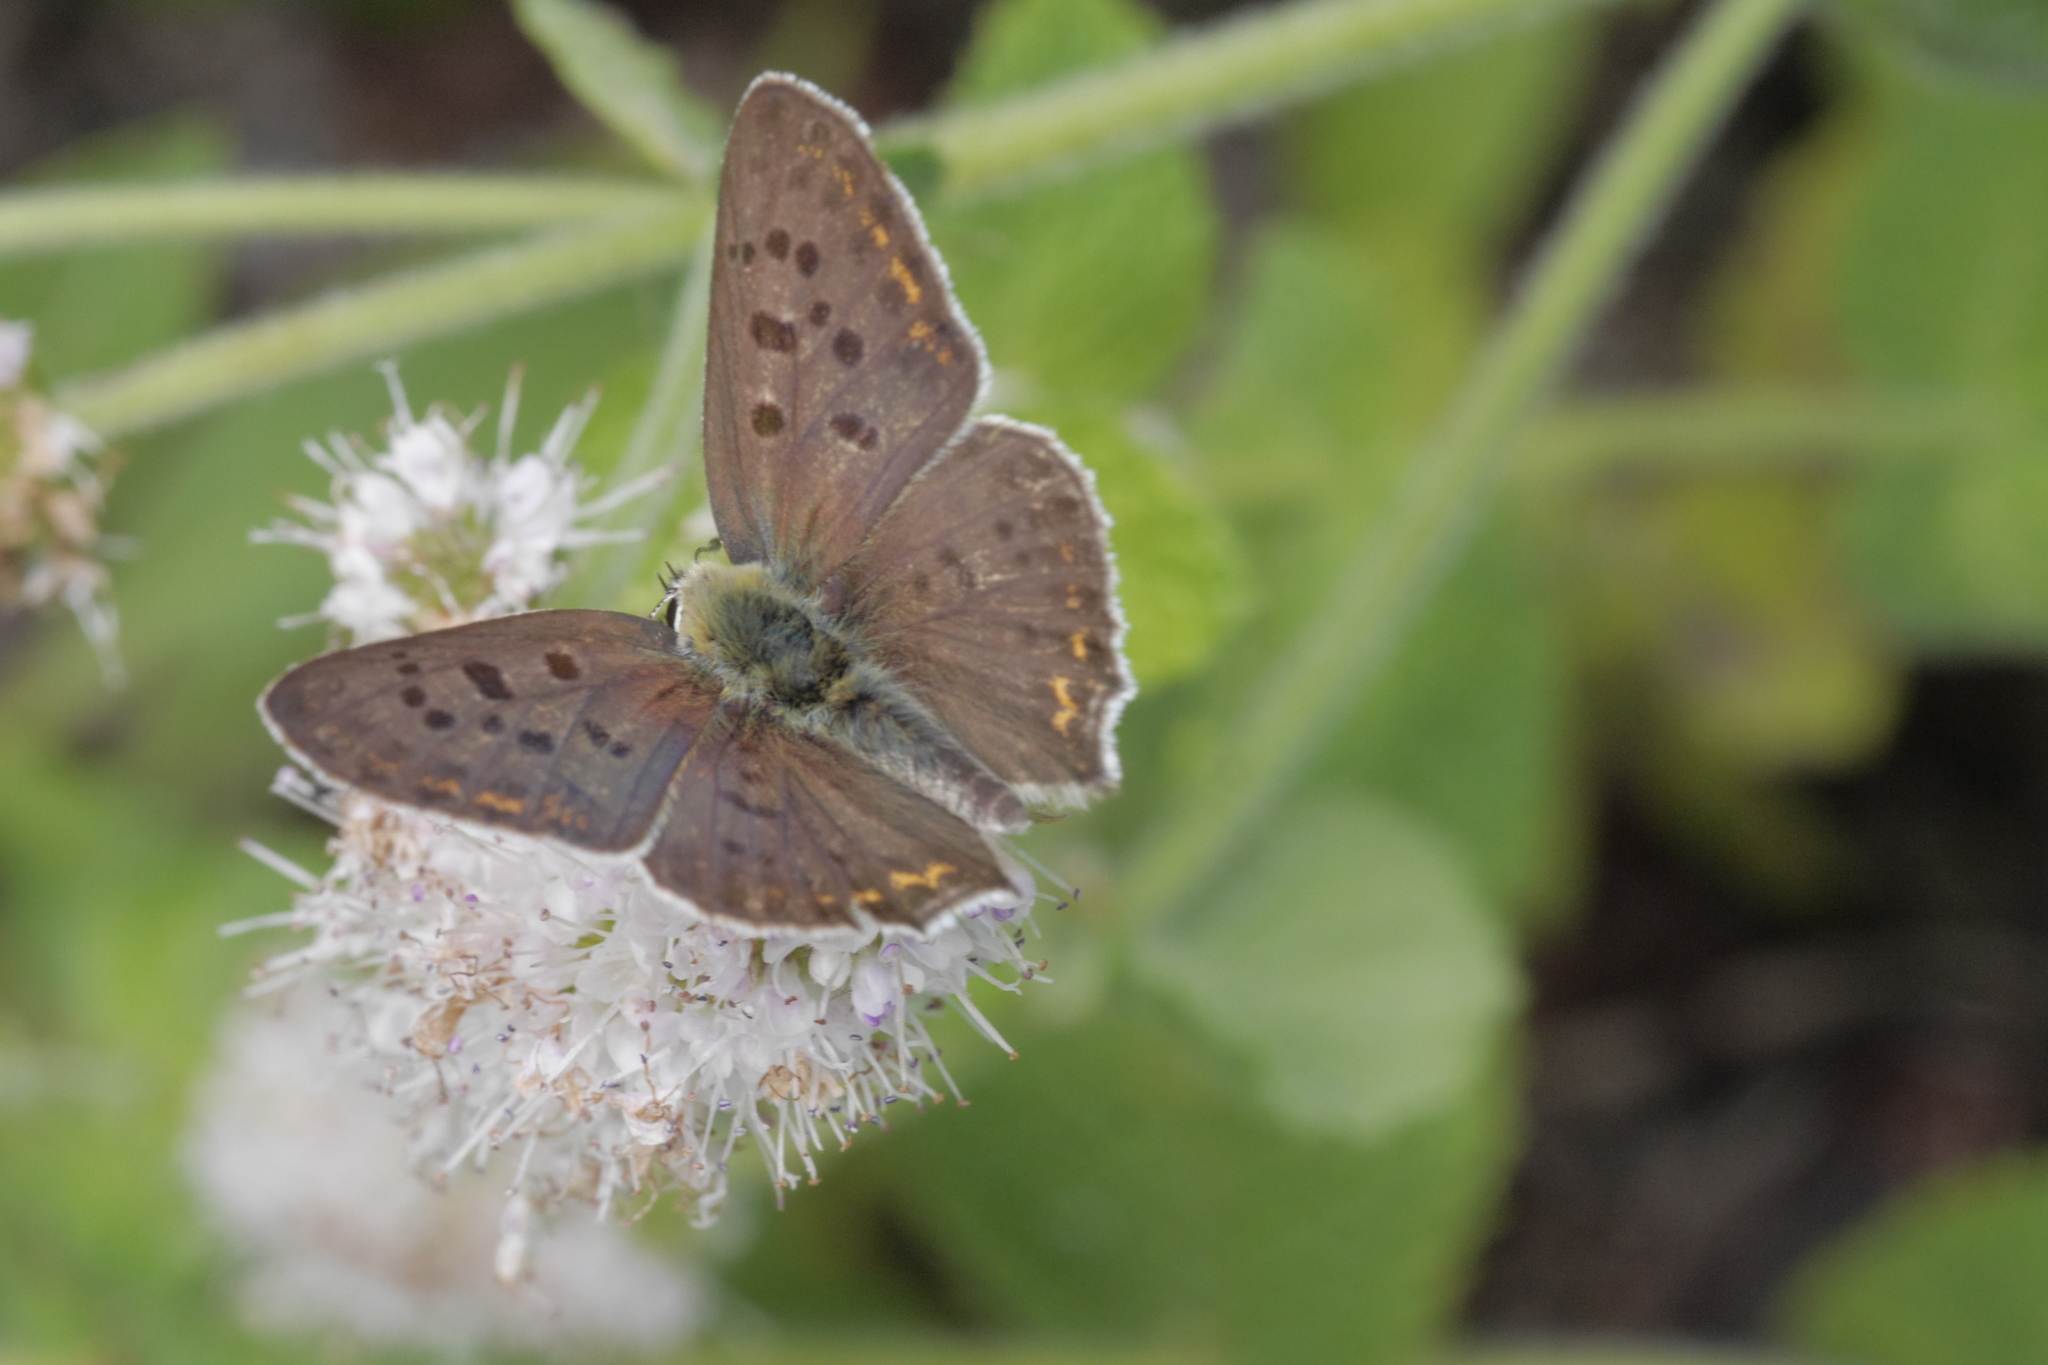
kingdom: Animalia
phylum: Arthropoda
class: Insecta
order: Lepidoptera
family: Lycaenidae
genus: Loweia
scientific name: Loweia tityrus
